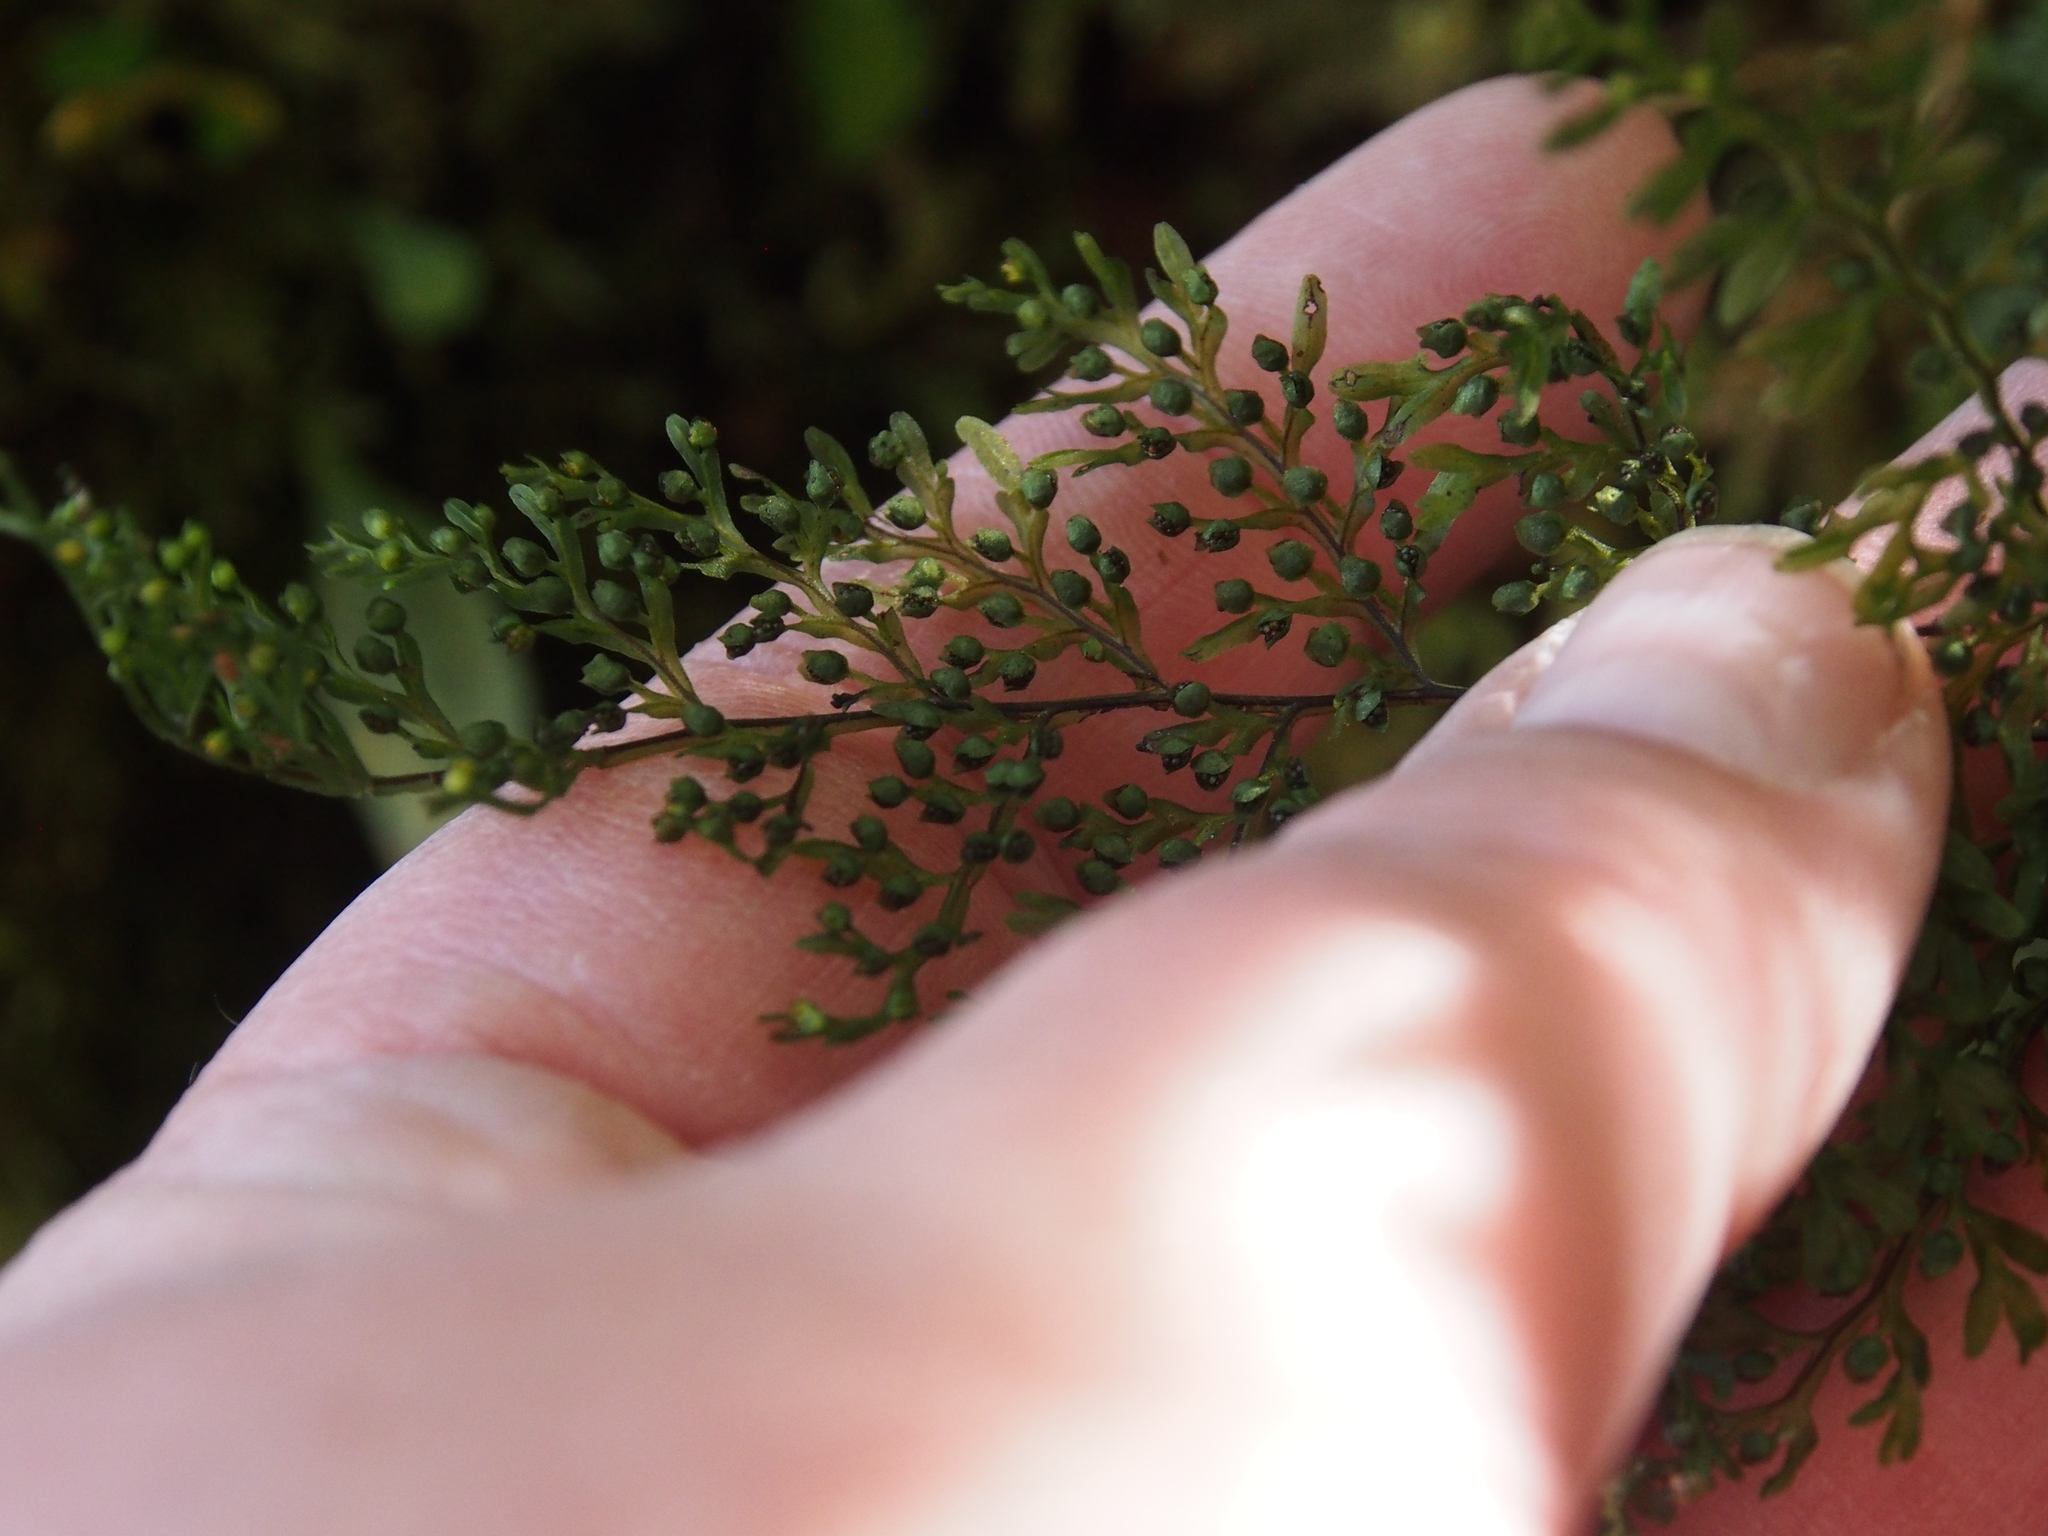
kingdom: Plantae
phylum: Tracheophyta
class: Polypodiopsida
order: Hymenophyllales
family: Hymenophyllaceae
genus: Hymenophyllum
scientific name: Hymenophyllum fucoides
